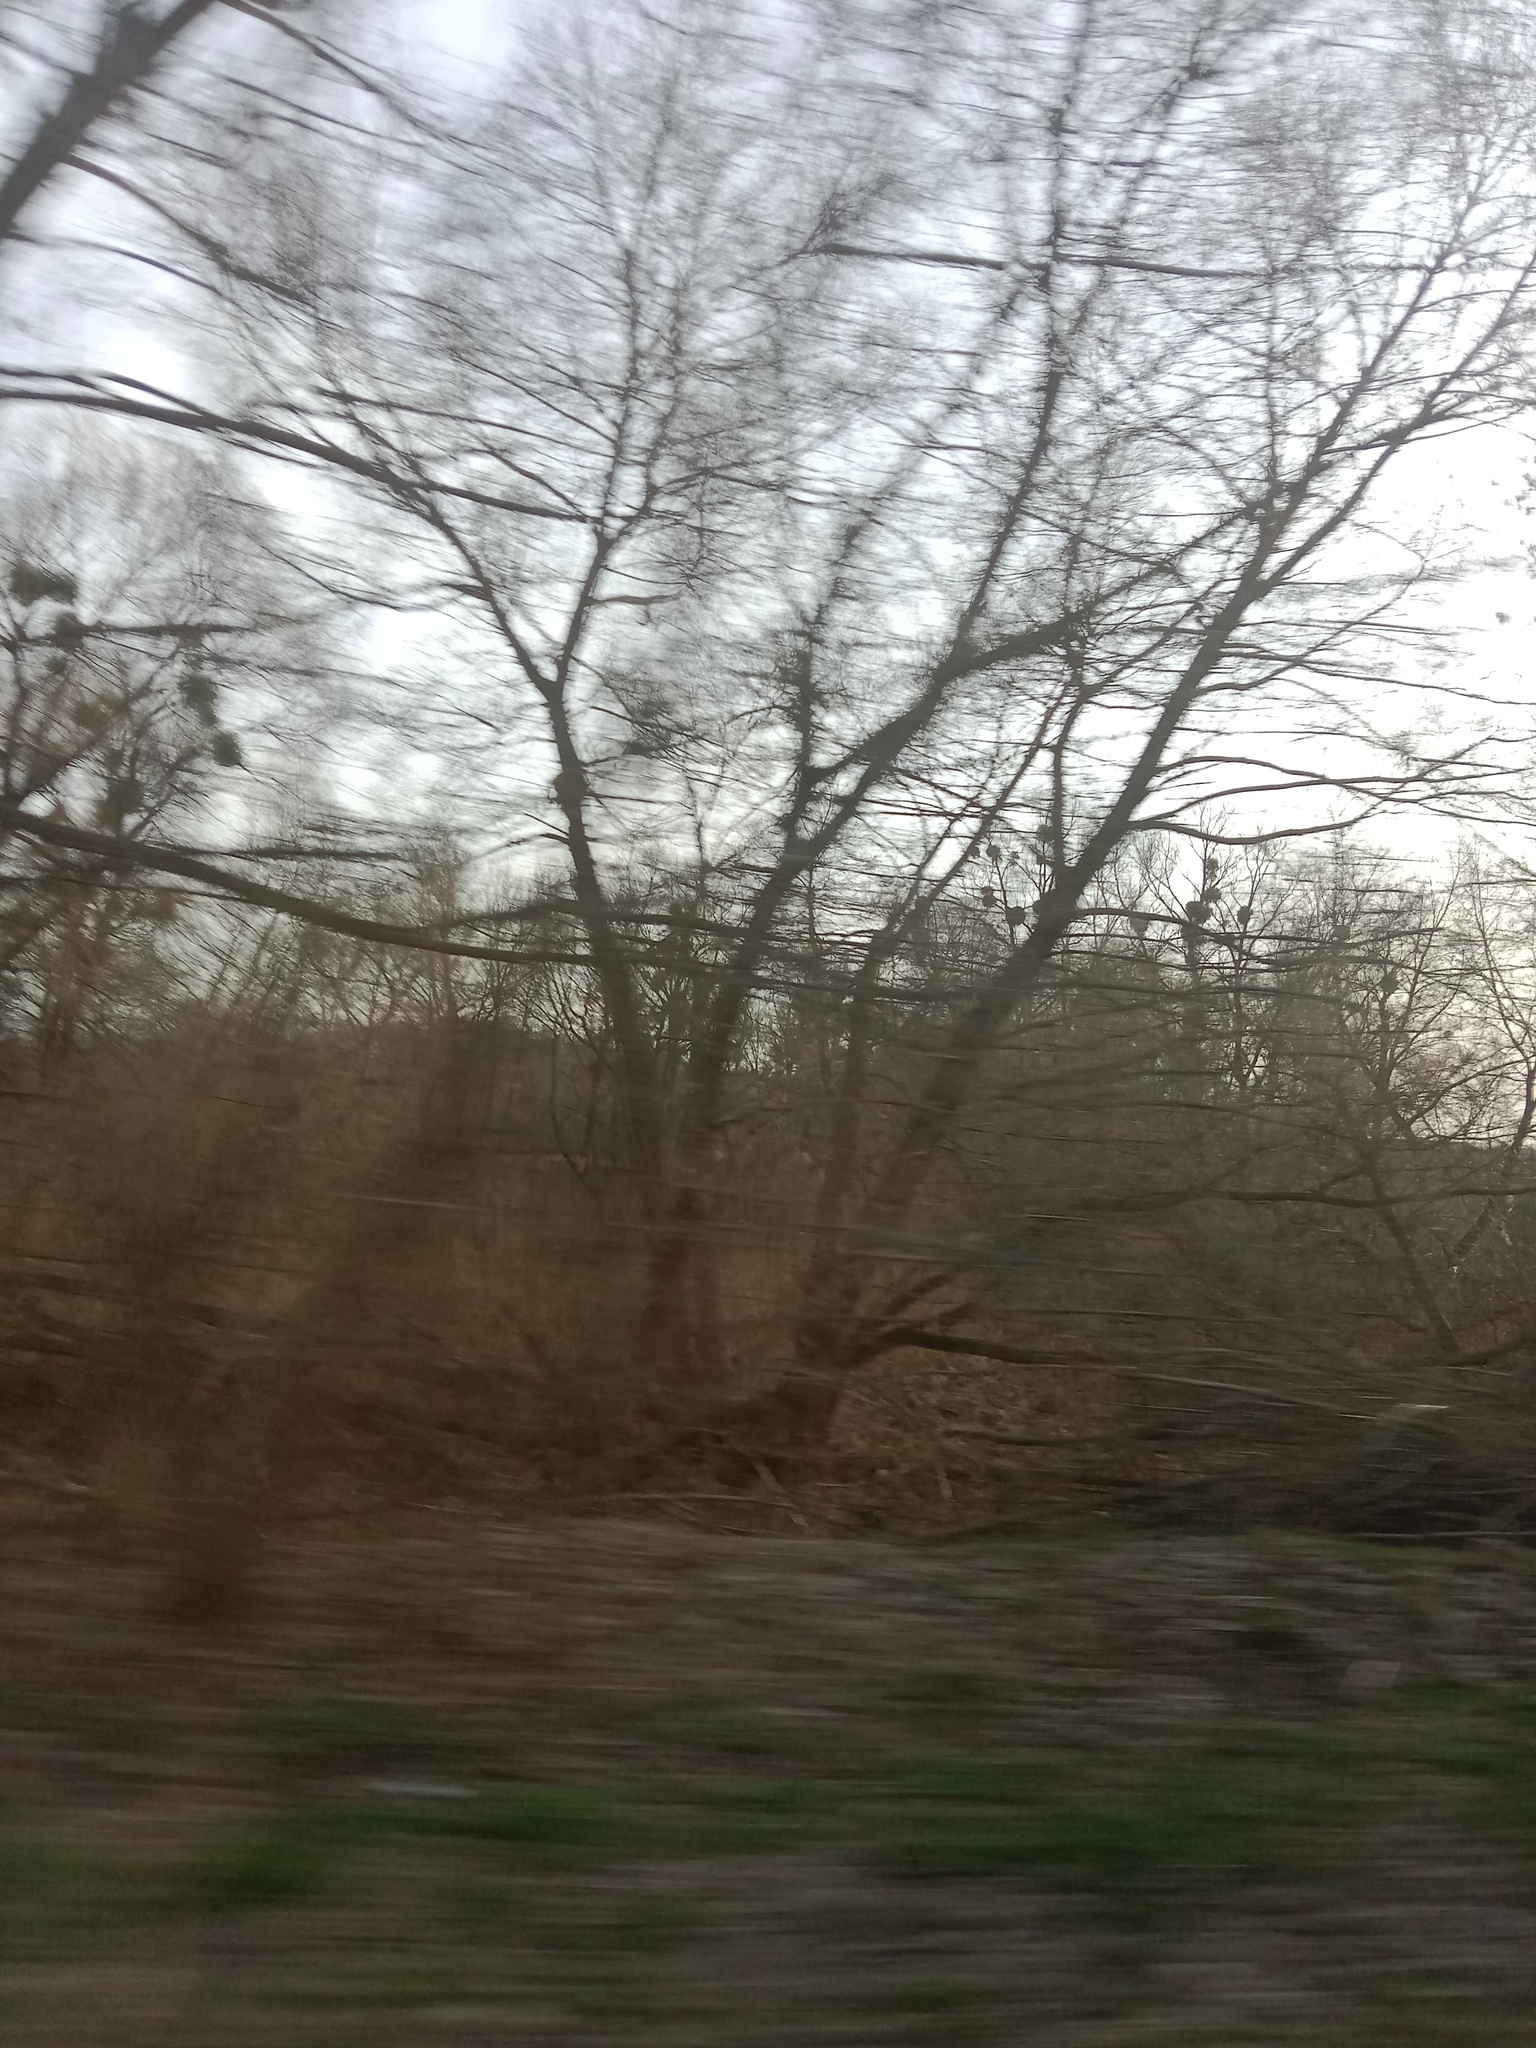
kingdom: Plantae
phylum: Tracheophyta
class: Magnoliopsida
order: Santalales
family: Viscaceae
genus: Viscum
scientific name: Viscum album
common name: Mistletoe
